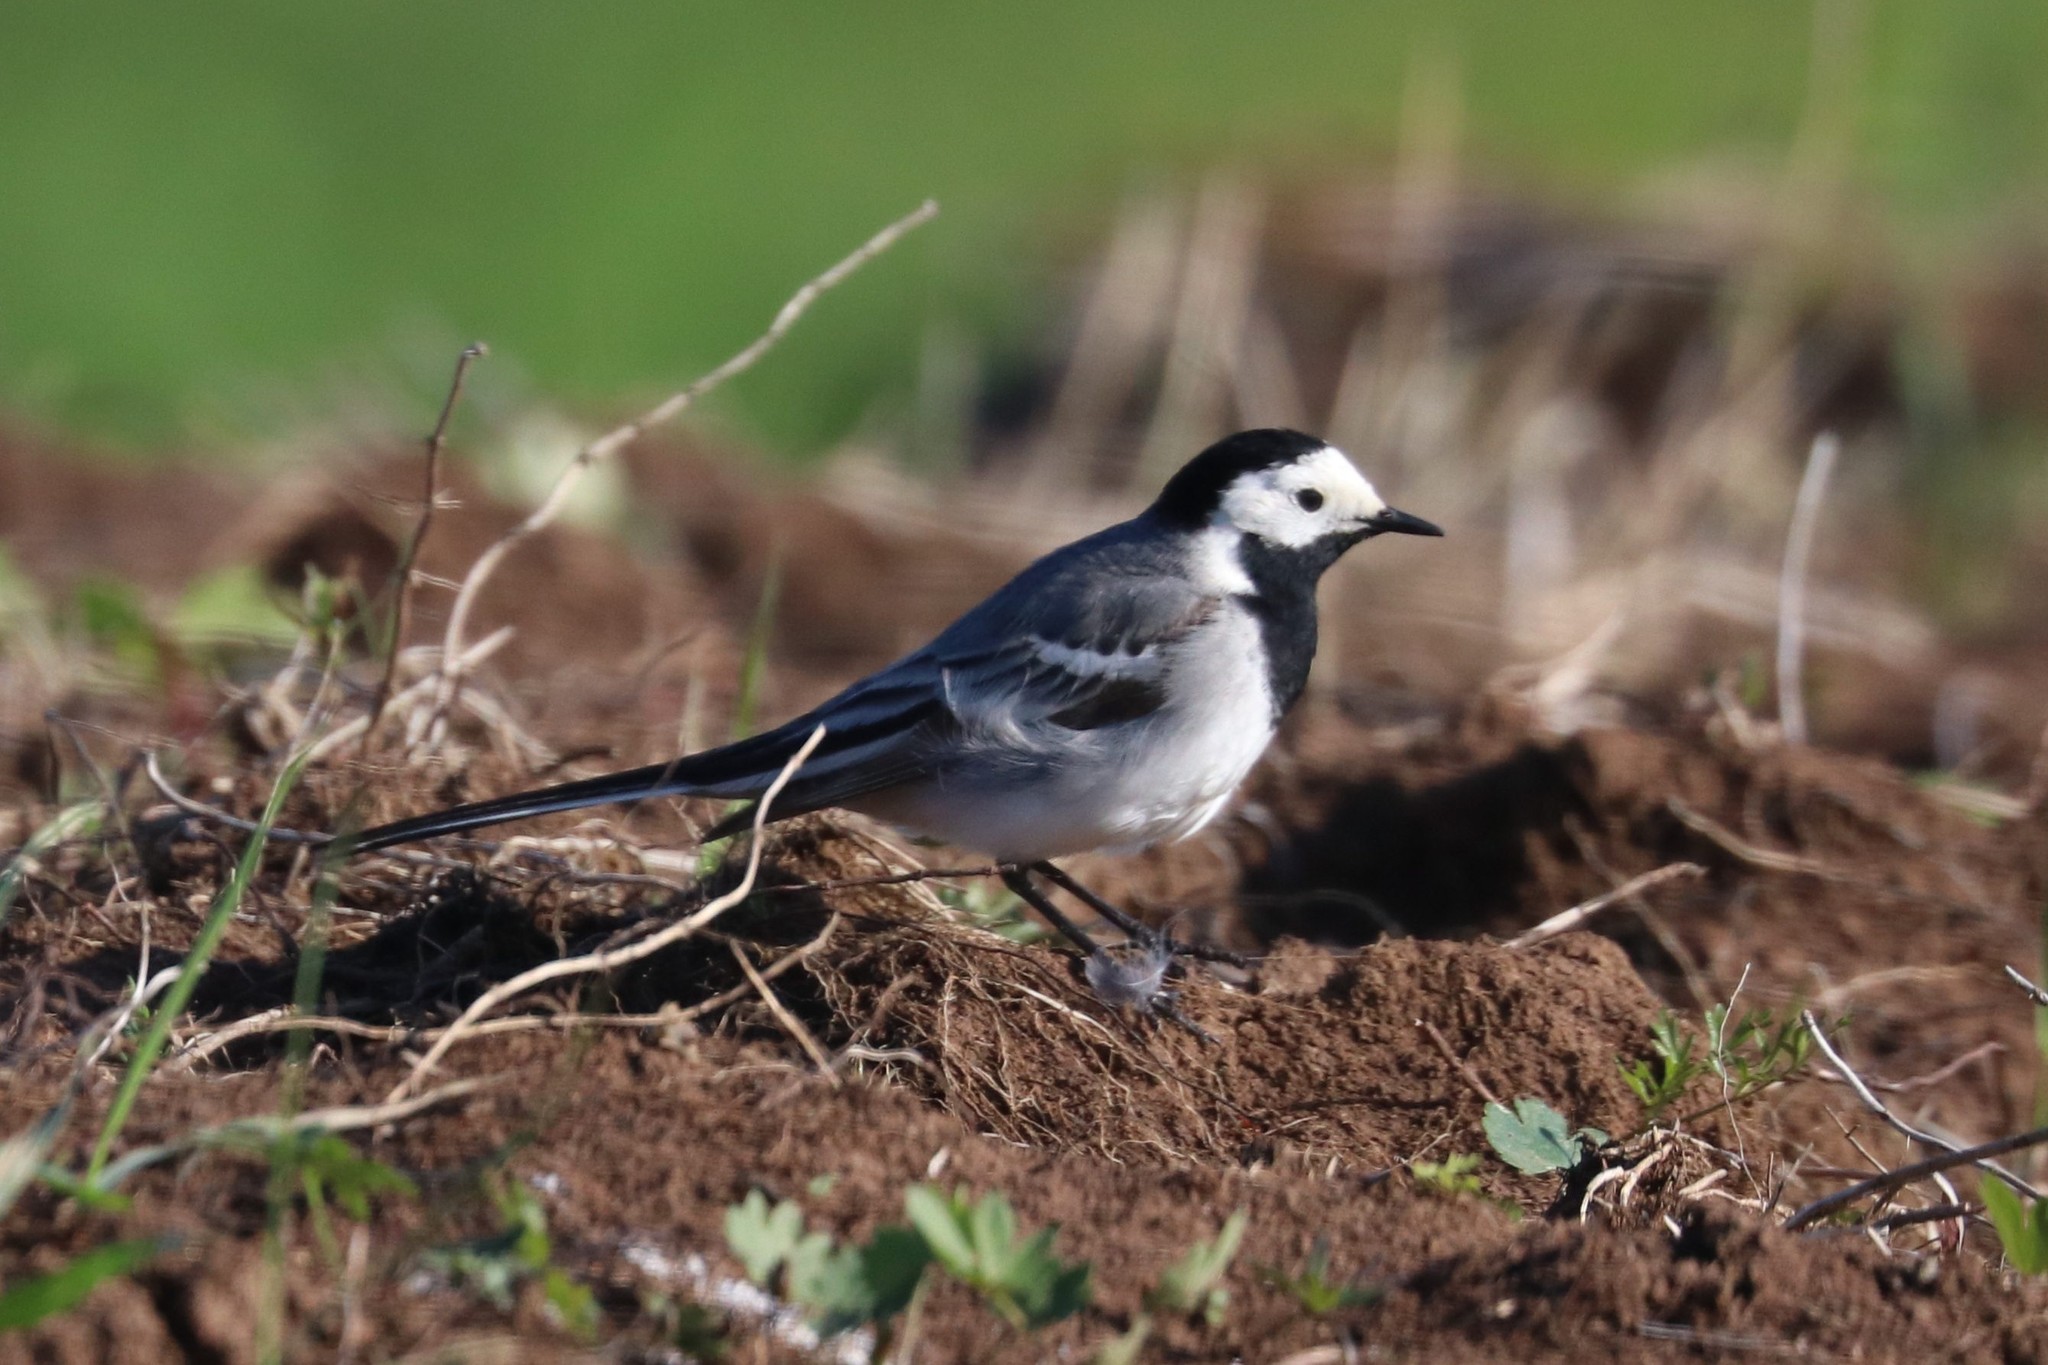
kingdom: Animalia
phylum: Chordata
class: Aves
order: Passeriformes
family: Motacillidae
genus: Motacilla
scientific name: Motacilla alba
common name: White wagtail
